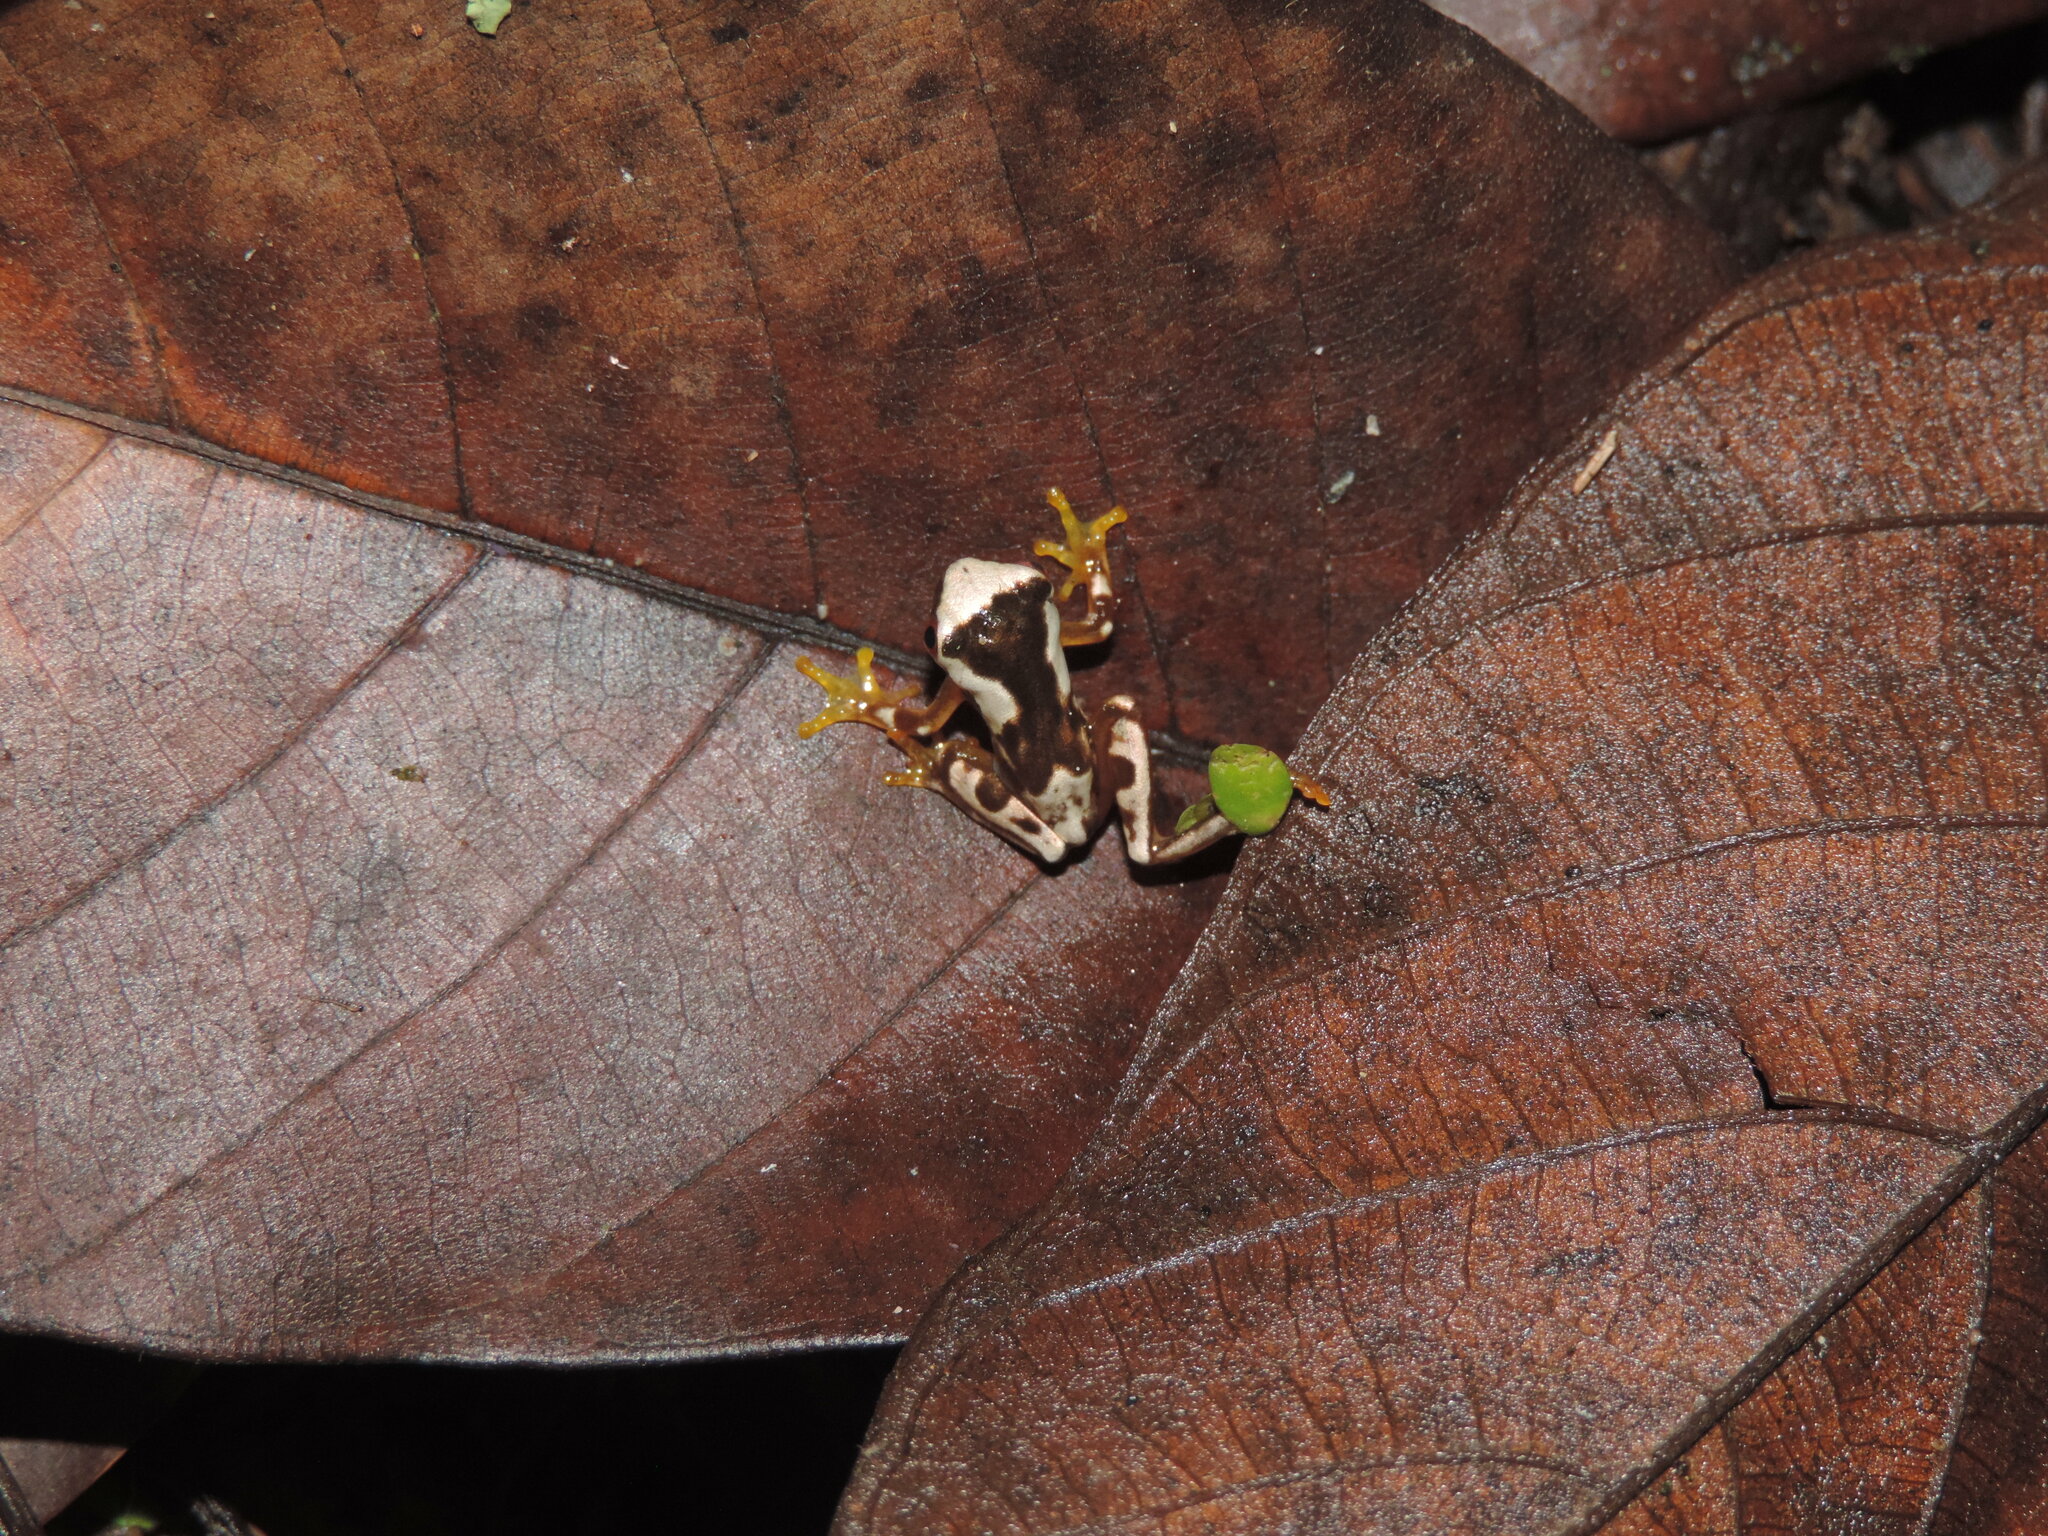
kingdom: Animalia
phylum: Chordata
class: Amphibia
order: Anura
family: Hylidae
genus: Dendropsophus
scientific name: Dendropsophus ebraccatus
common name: Hourglass treefrog
